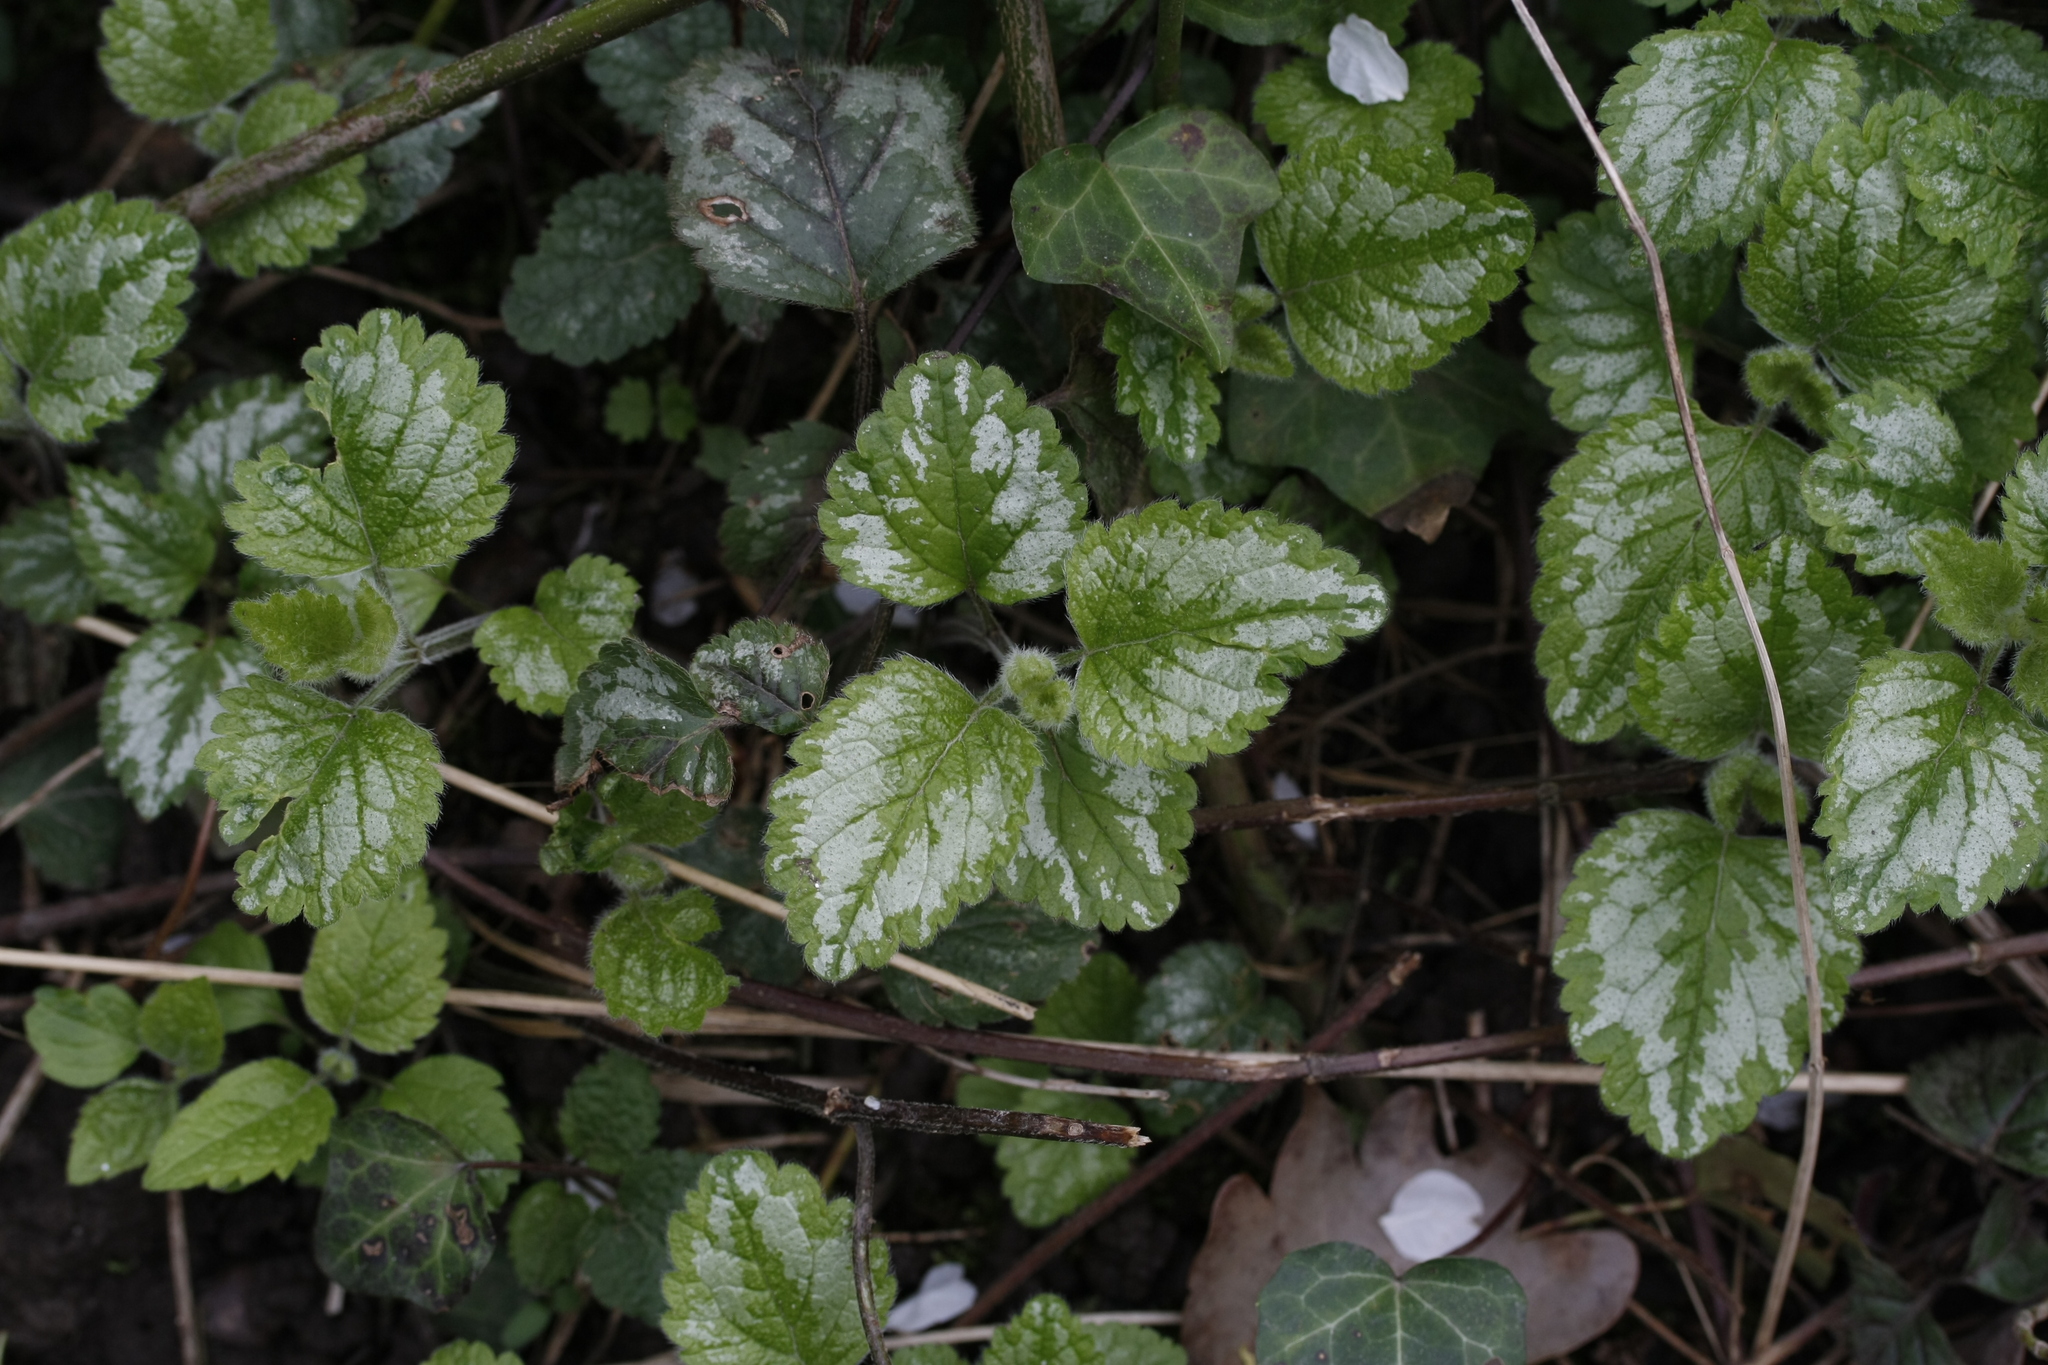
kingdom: Plantae
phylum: Tracheophyta
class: Magnoliopsida
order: Lamiales
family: Lamiaceae
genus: Lamium
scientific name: Lamium galeobdolon
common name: Yellow archangel
